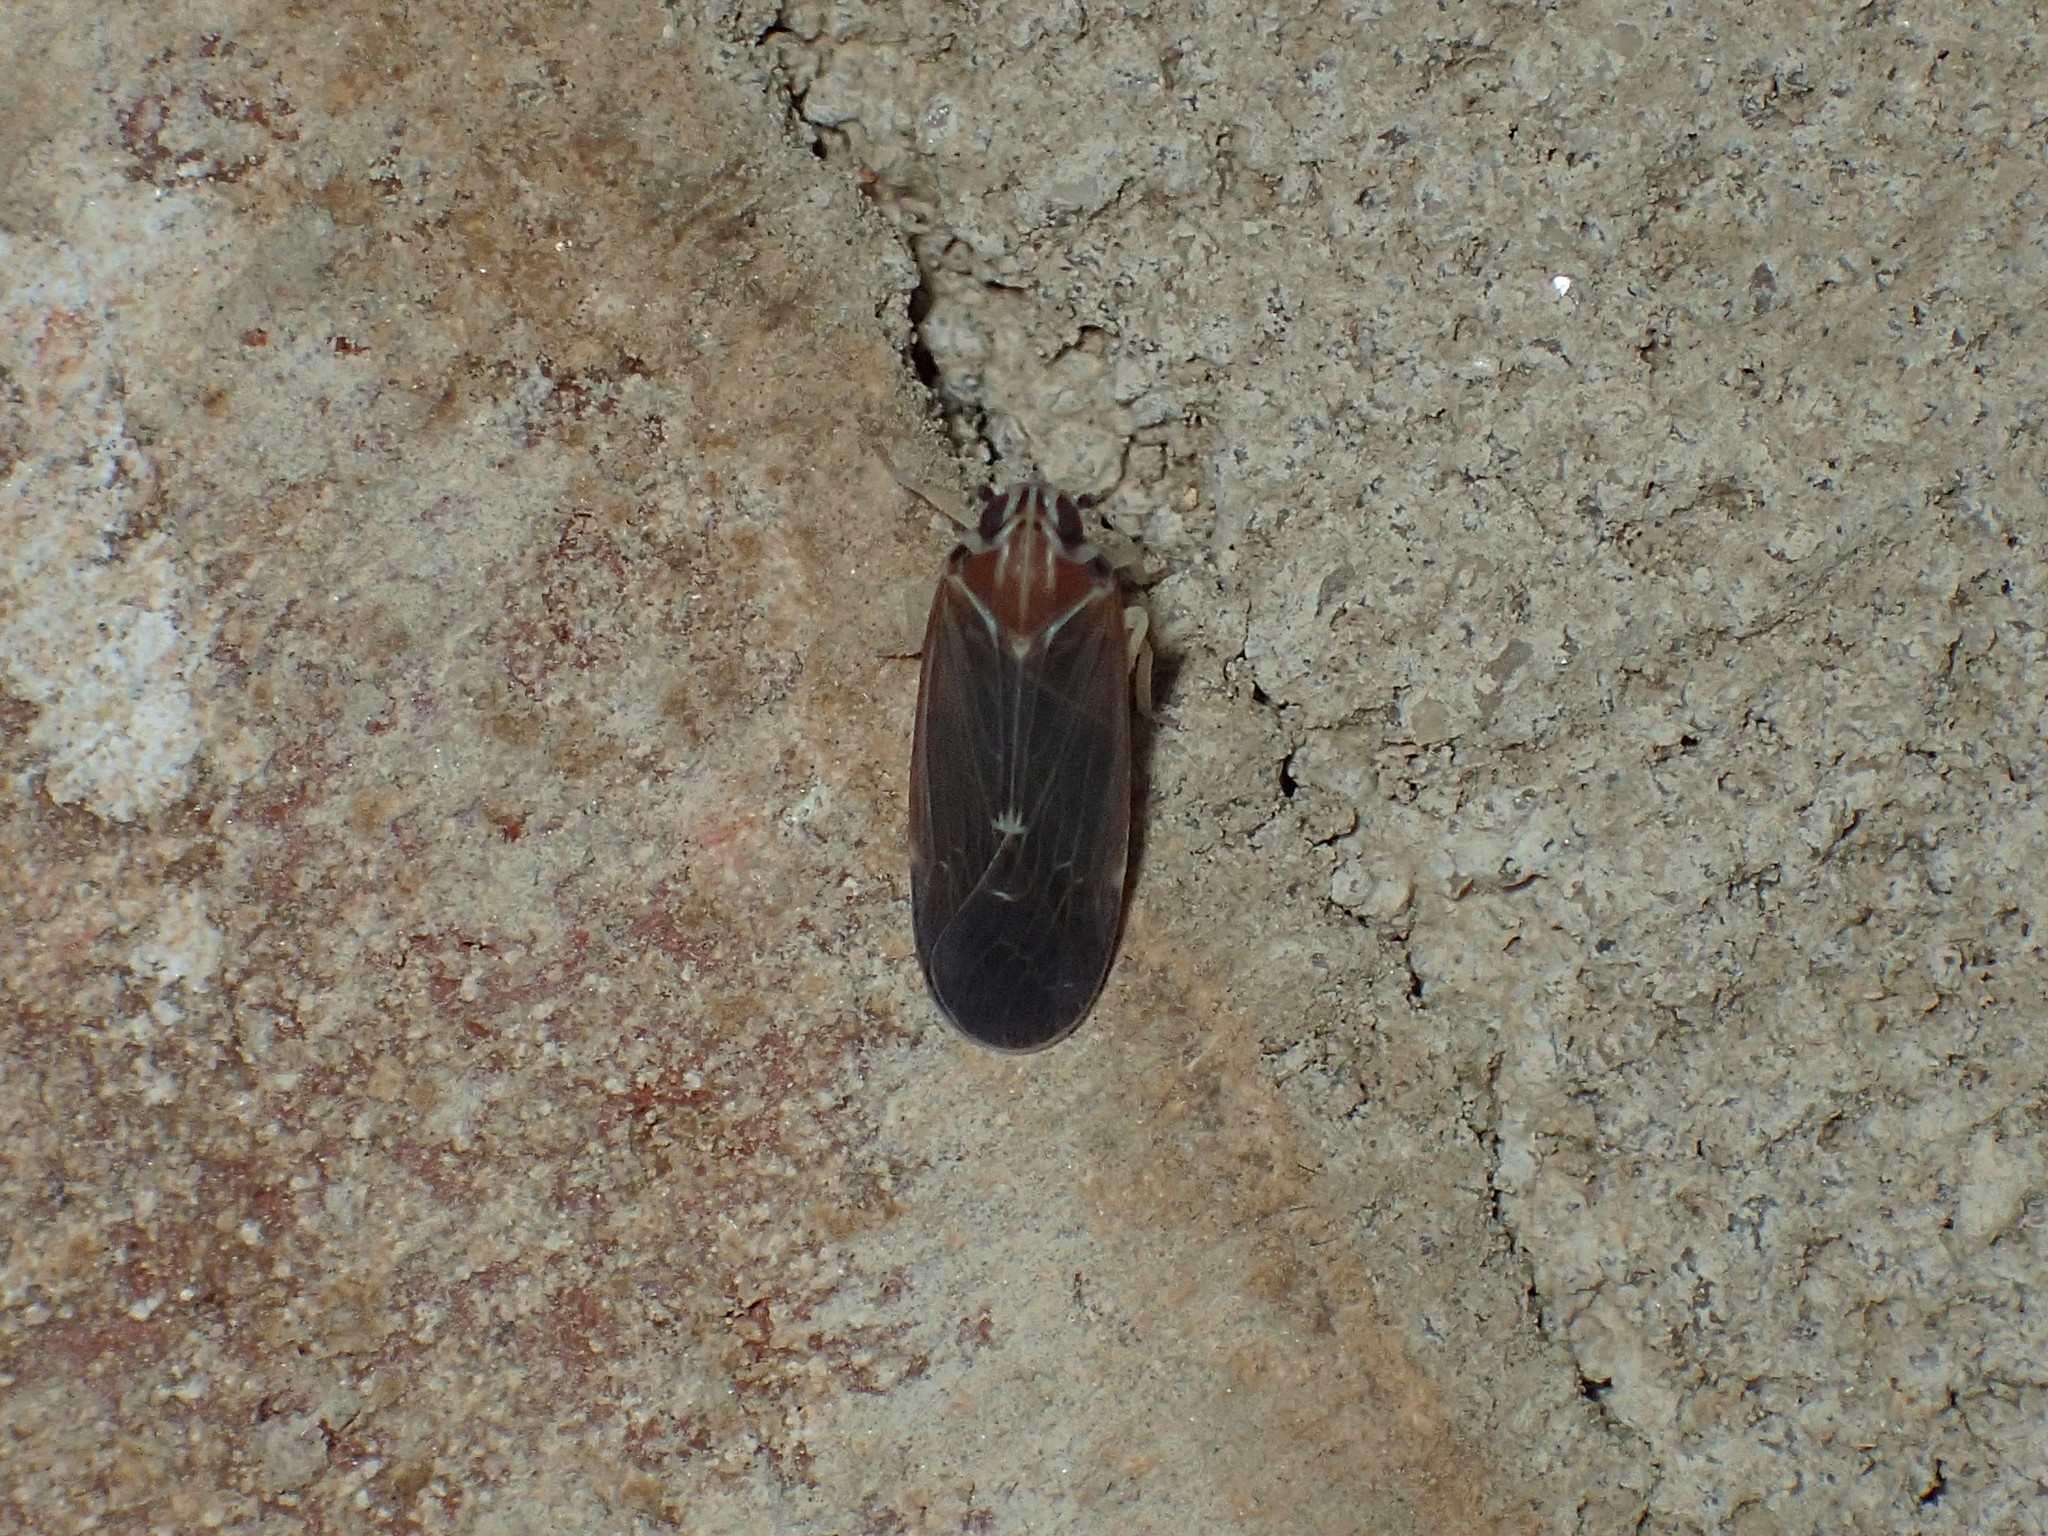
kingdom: Animalia
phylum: Arthropoda
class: Insecta
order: Hemiptera
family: Achilidae
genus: Synecdoche
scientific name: Synecdoche impunctata
